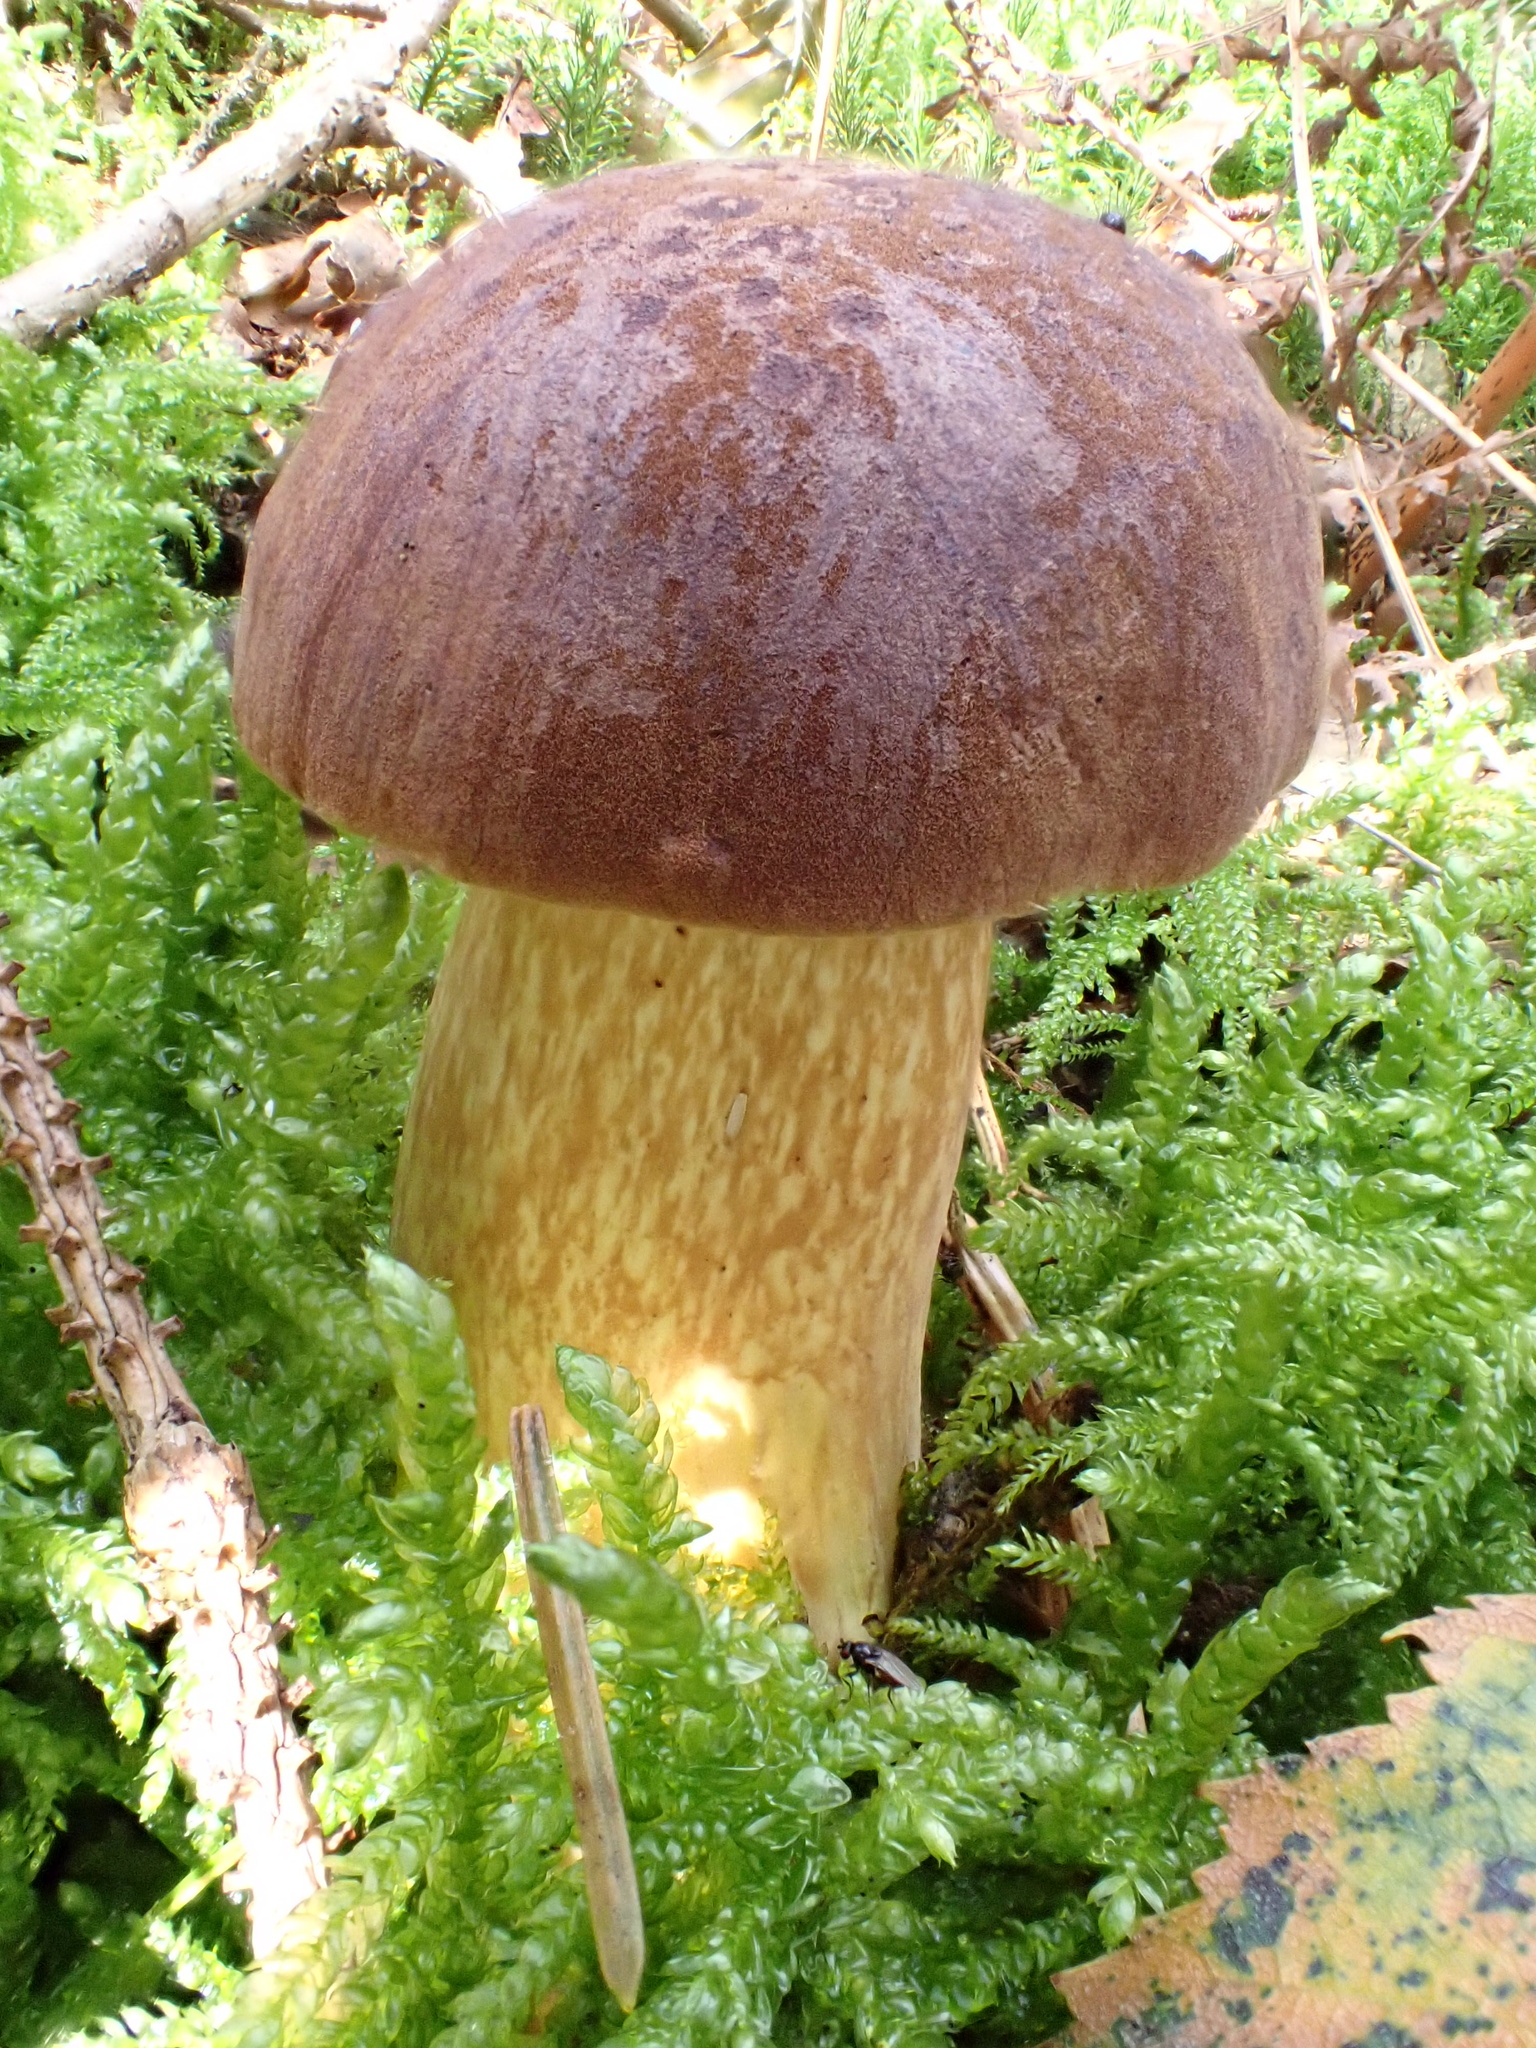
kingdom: Fungi
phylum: Basidiomycota
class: Agaricomycetes
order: Boletales
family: Boletaceae
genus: Imleria
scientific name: Imleria badia
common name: Bay bolete
